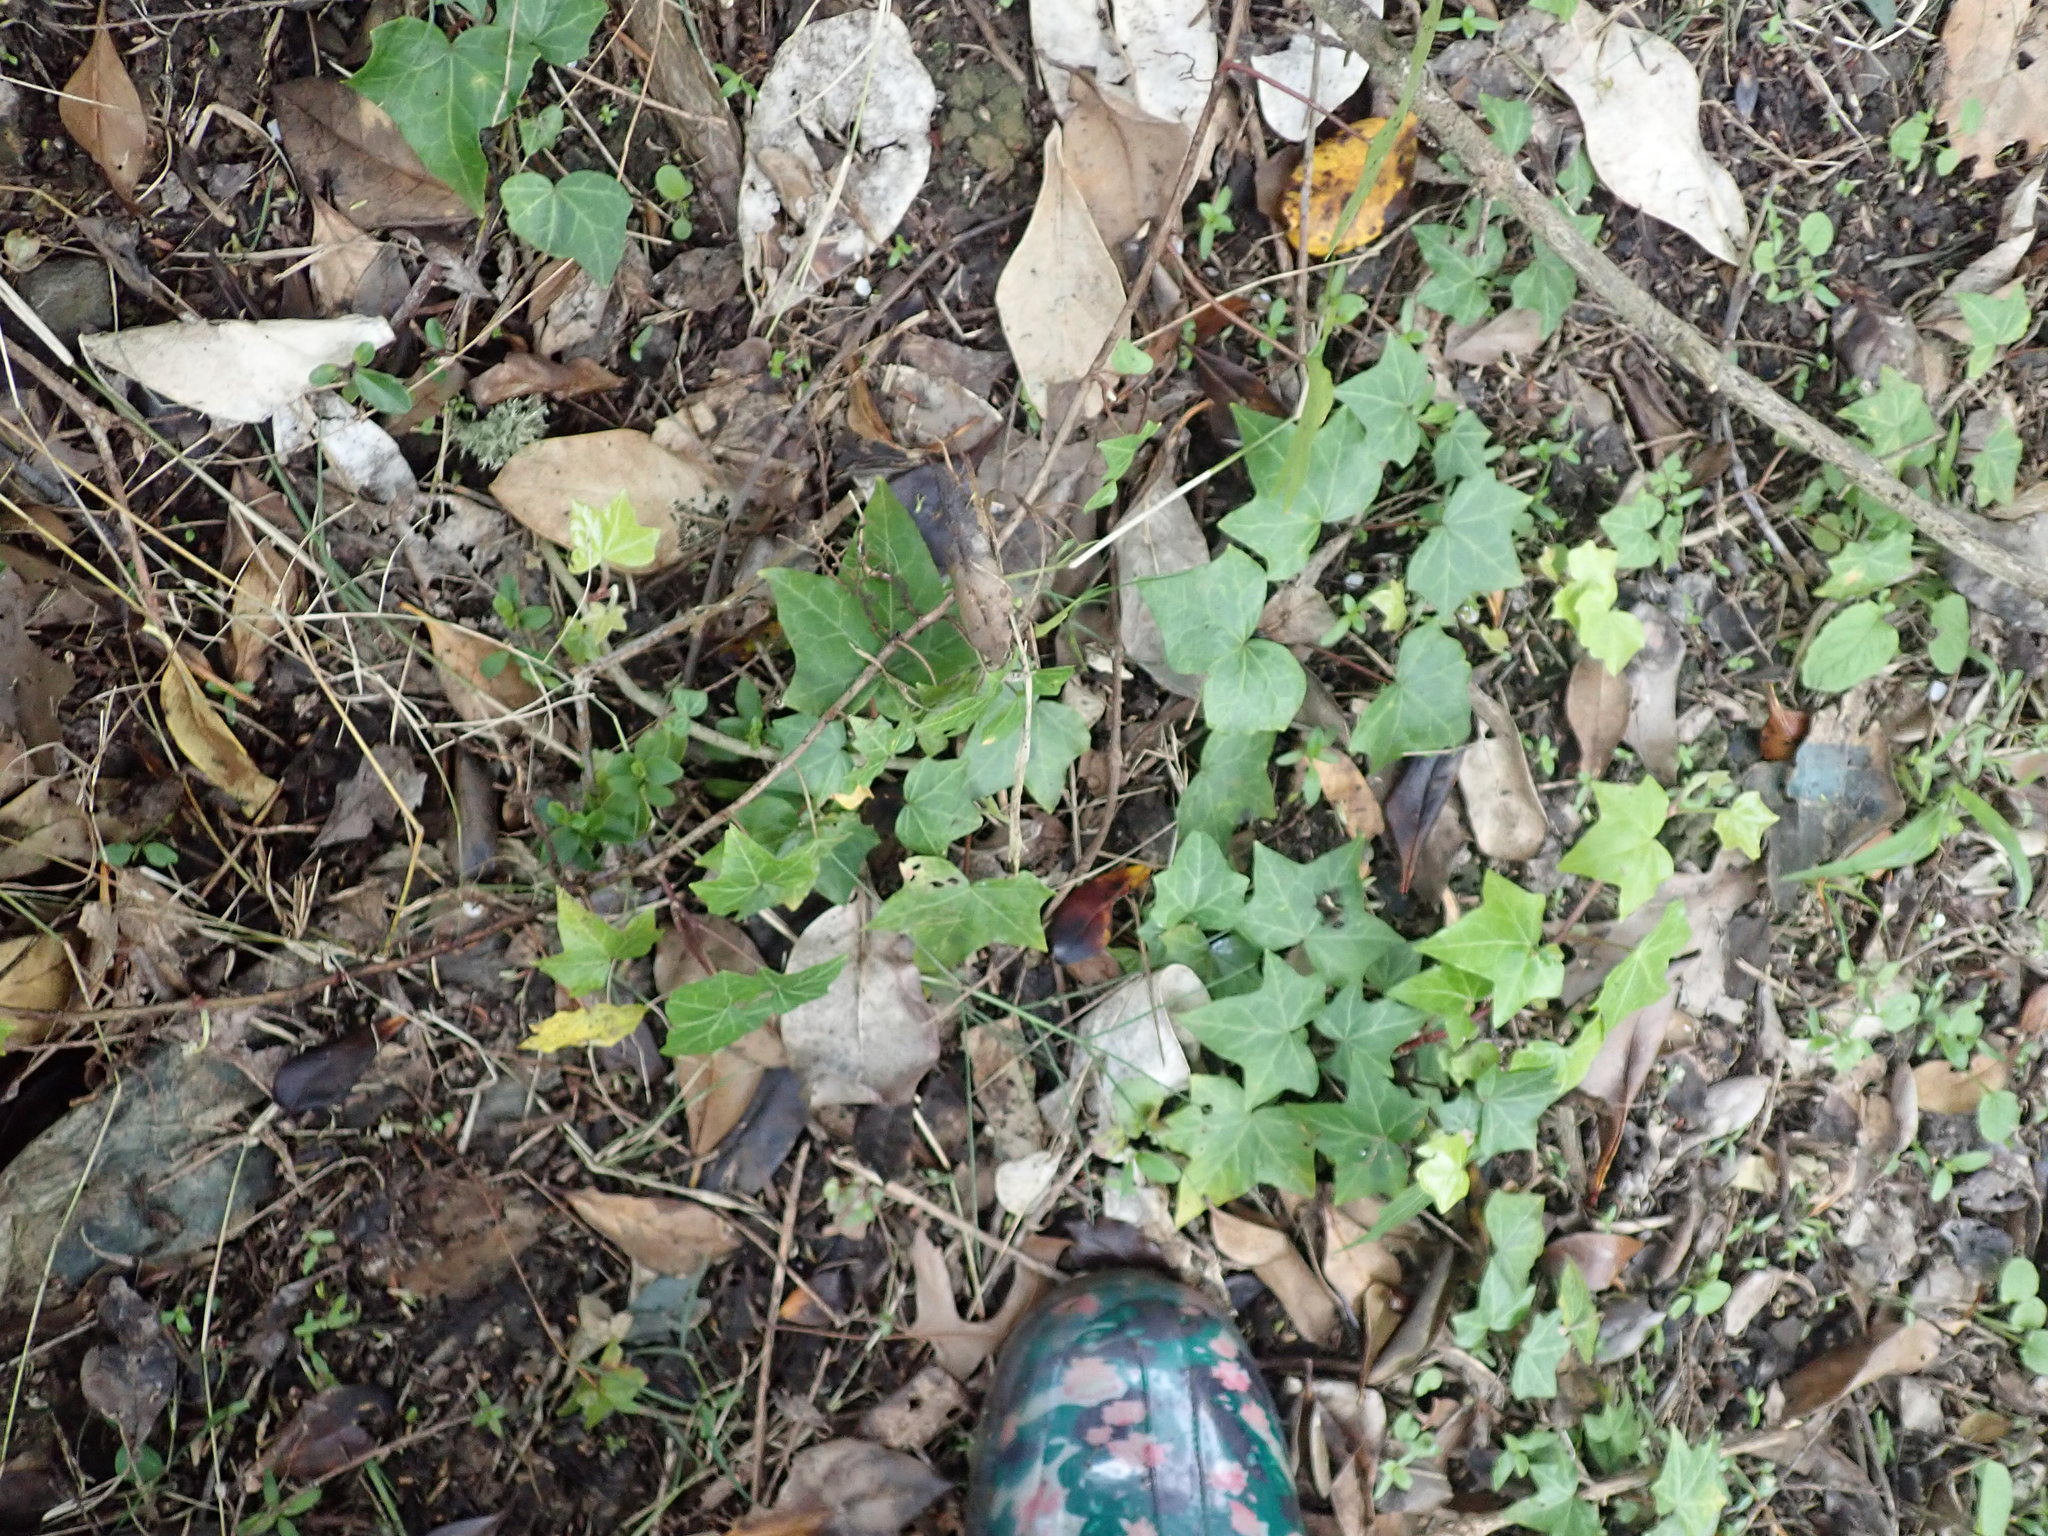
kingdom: Plantae
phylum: Tracheophyta
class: Magnoliopsida
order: Apiales
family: Araliaceae
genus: Hedera
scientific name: Hedera helix
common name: Ivy
